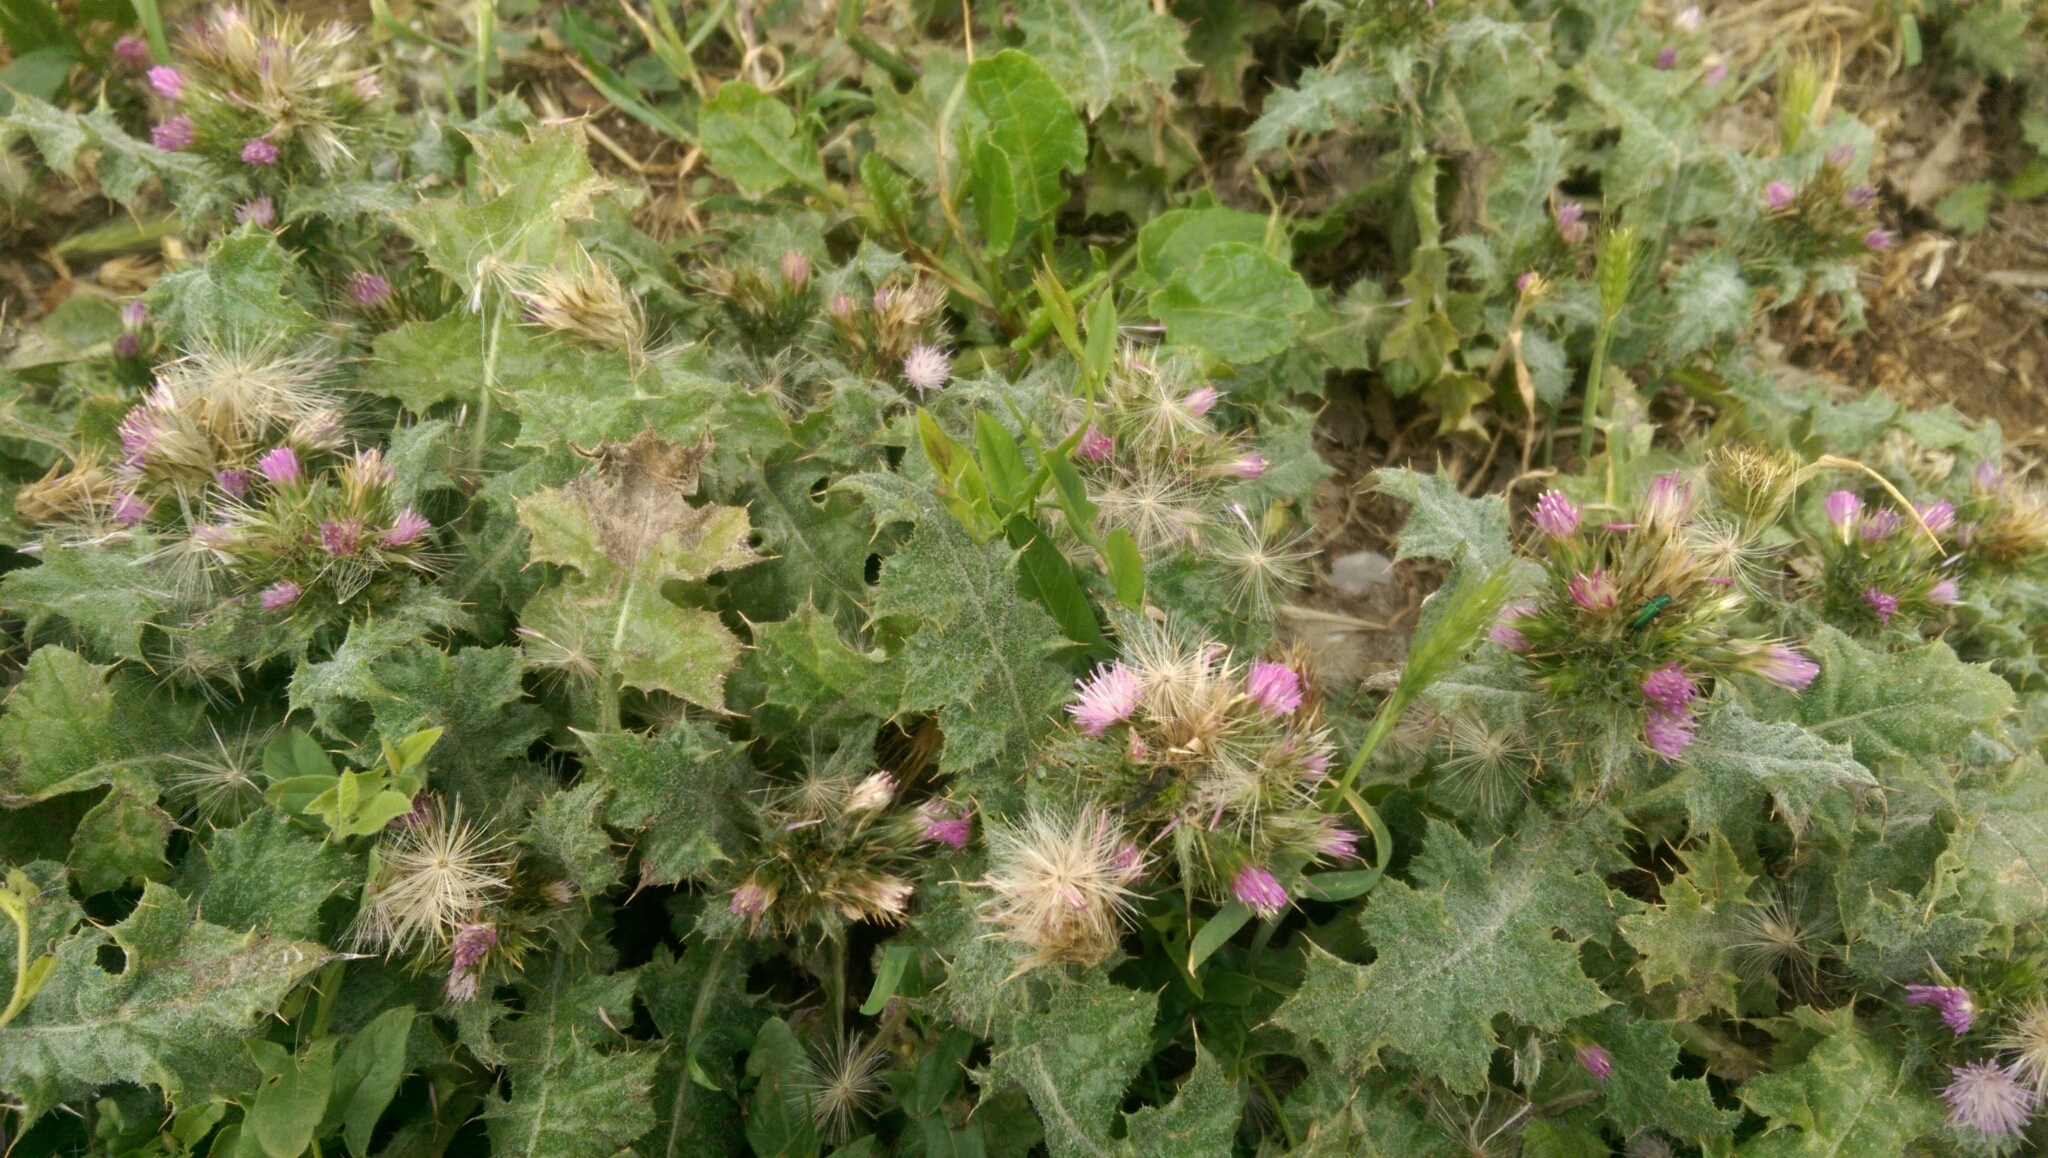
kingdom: Plantae
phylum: Tracheophyta
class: Magnoliopsida
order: Asterales
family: Asteraceae
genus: Carduus
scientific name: Carduus tenuiflorus
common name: Slender thistle
